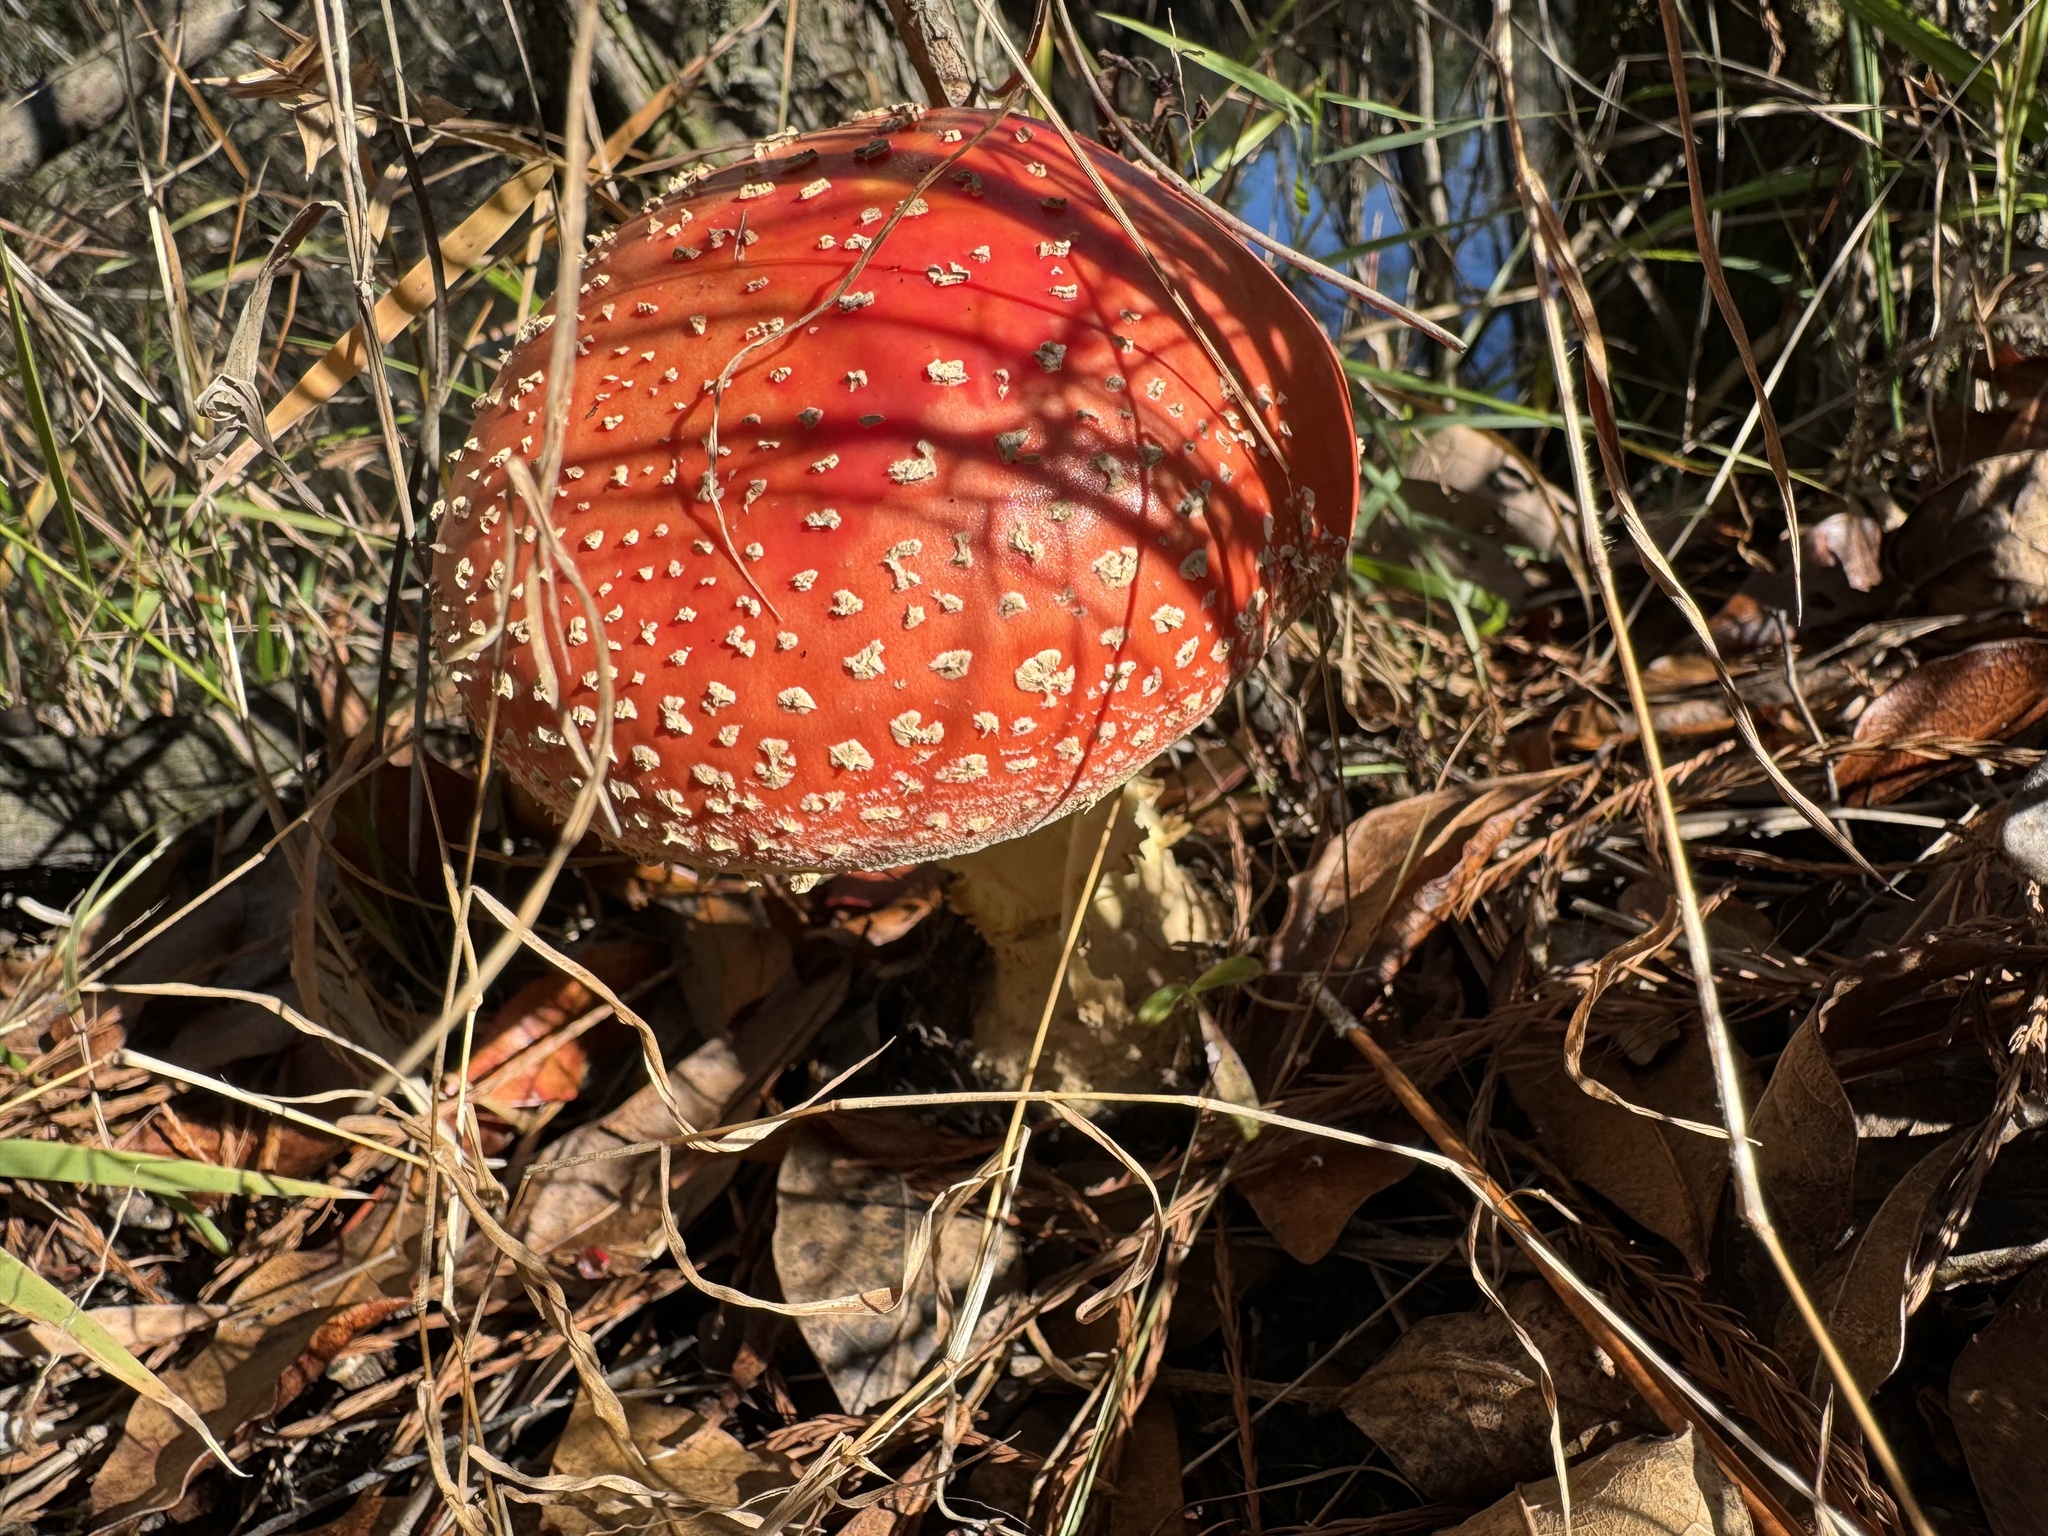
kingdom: Fungi
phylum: Basidiomycota
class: Agaricomycetes
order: Agaricales
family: Amanitaceae
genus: Amanita
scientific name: Amanita persicina
